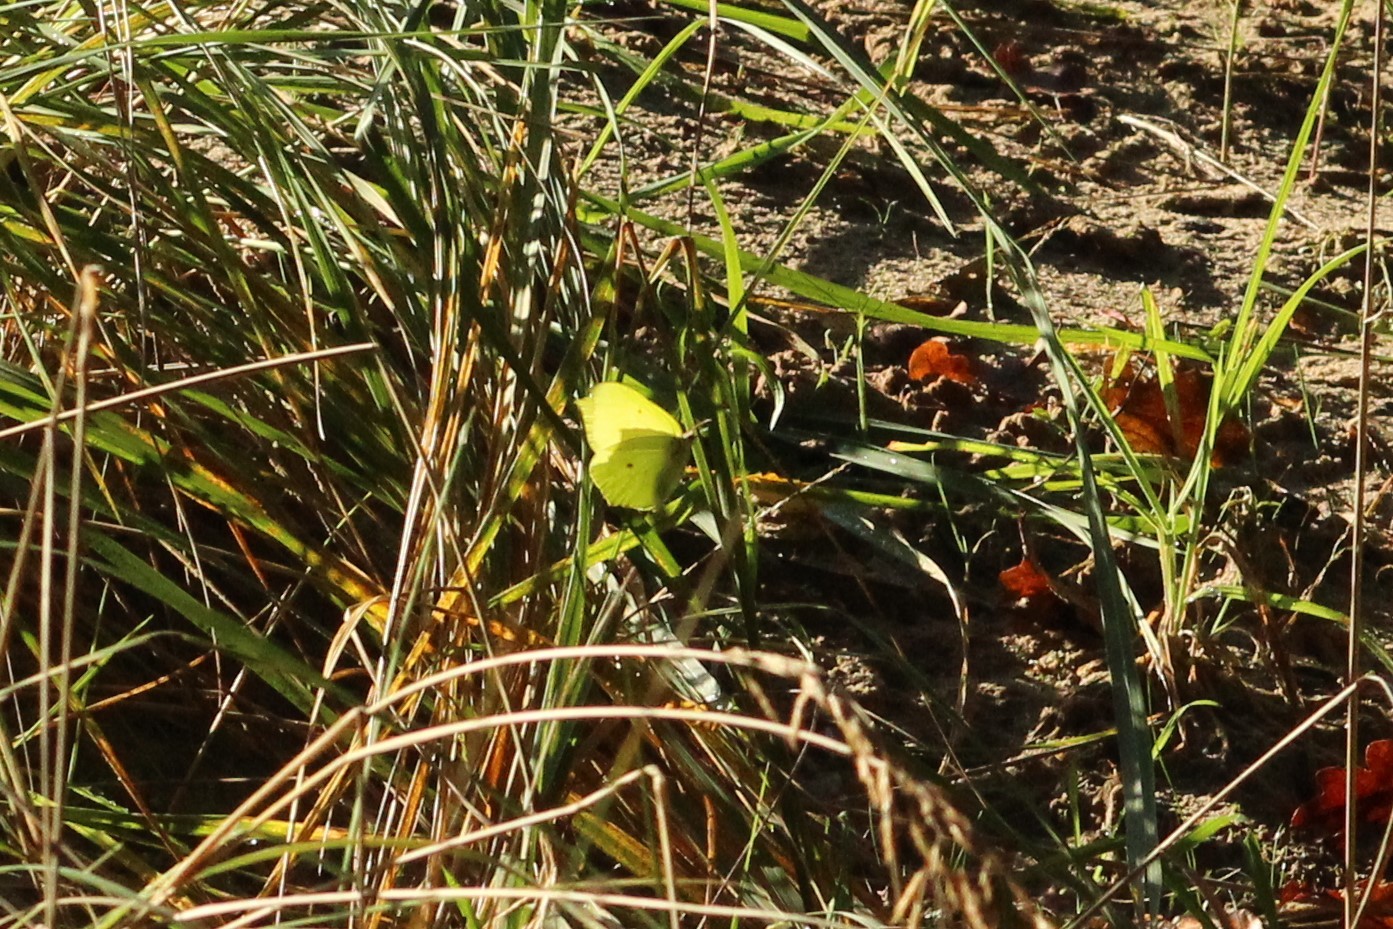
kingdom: Animalia
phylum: Arthropoda
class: Insecta
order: Lepidoptera
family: Pieridae
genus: Gonepteryx
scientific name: Gonepteryx rhamni
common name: Brimstone
